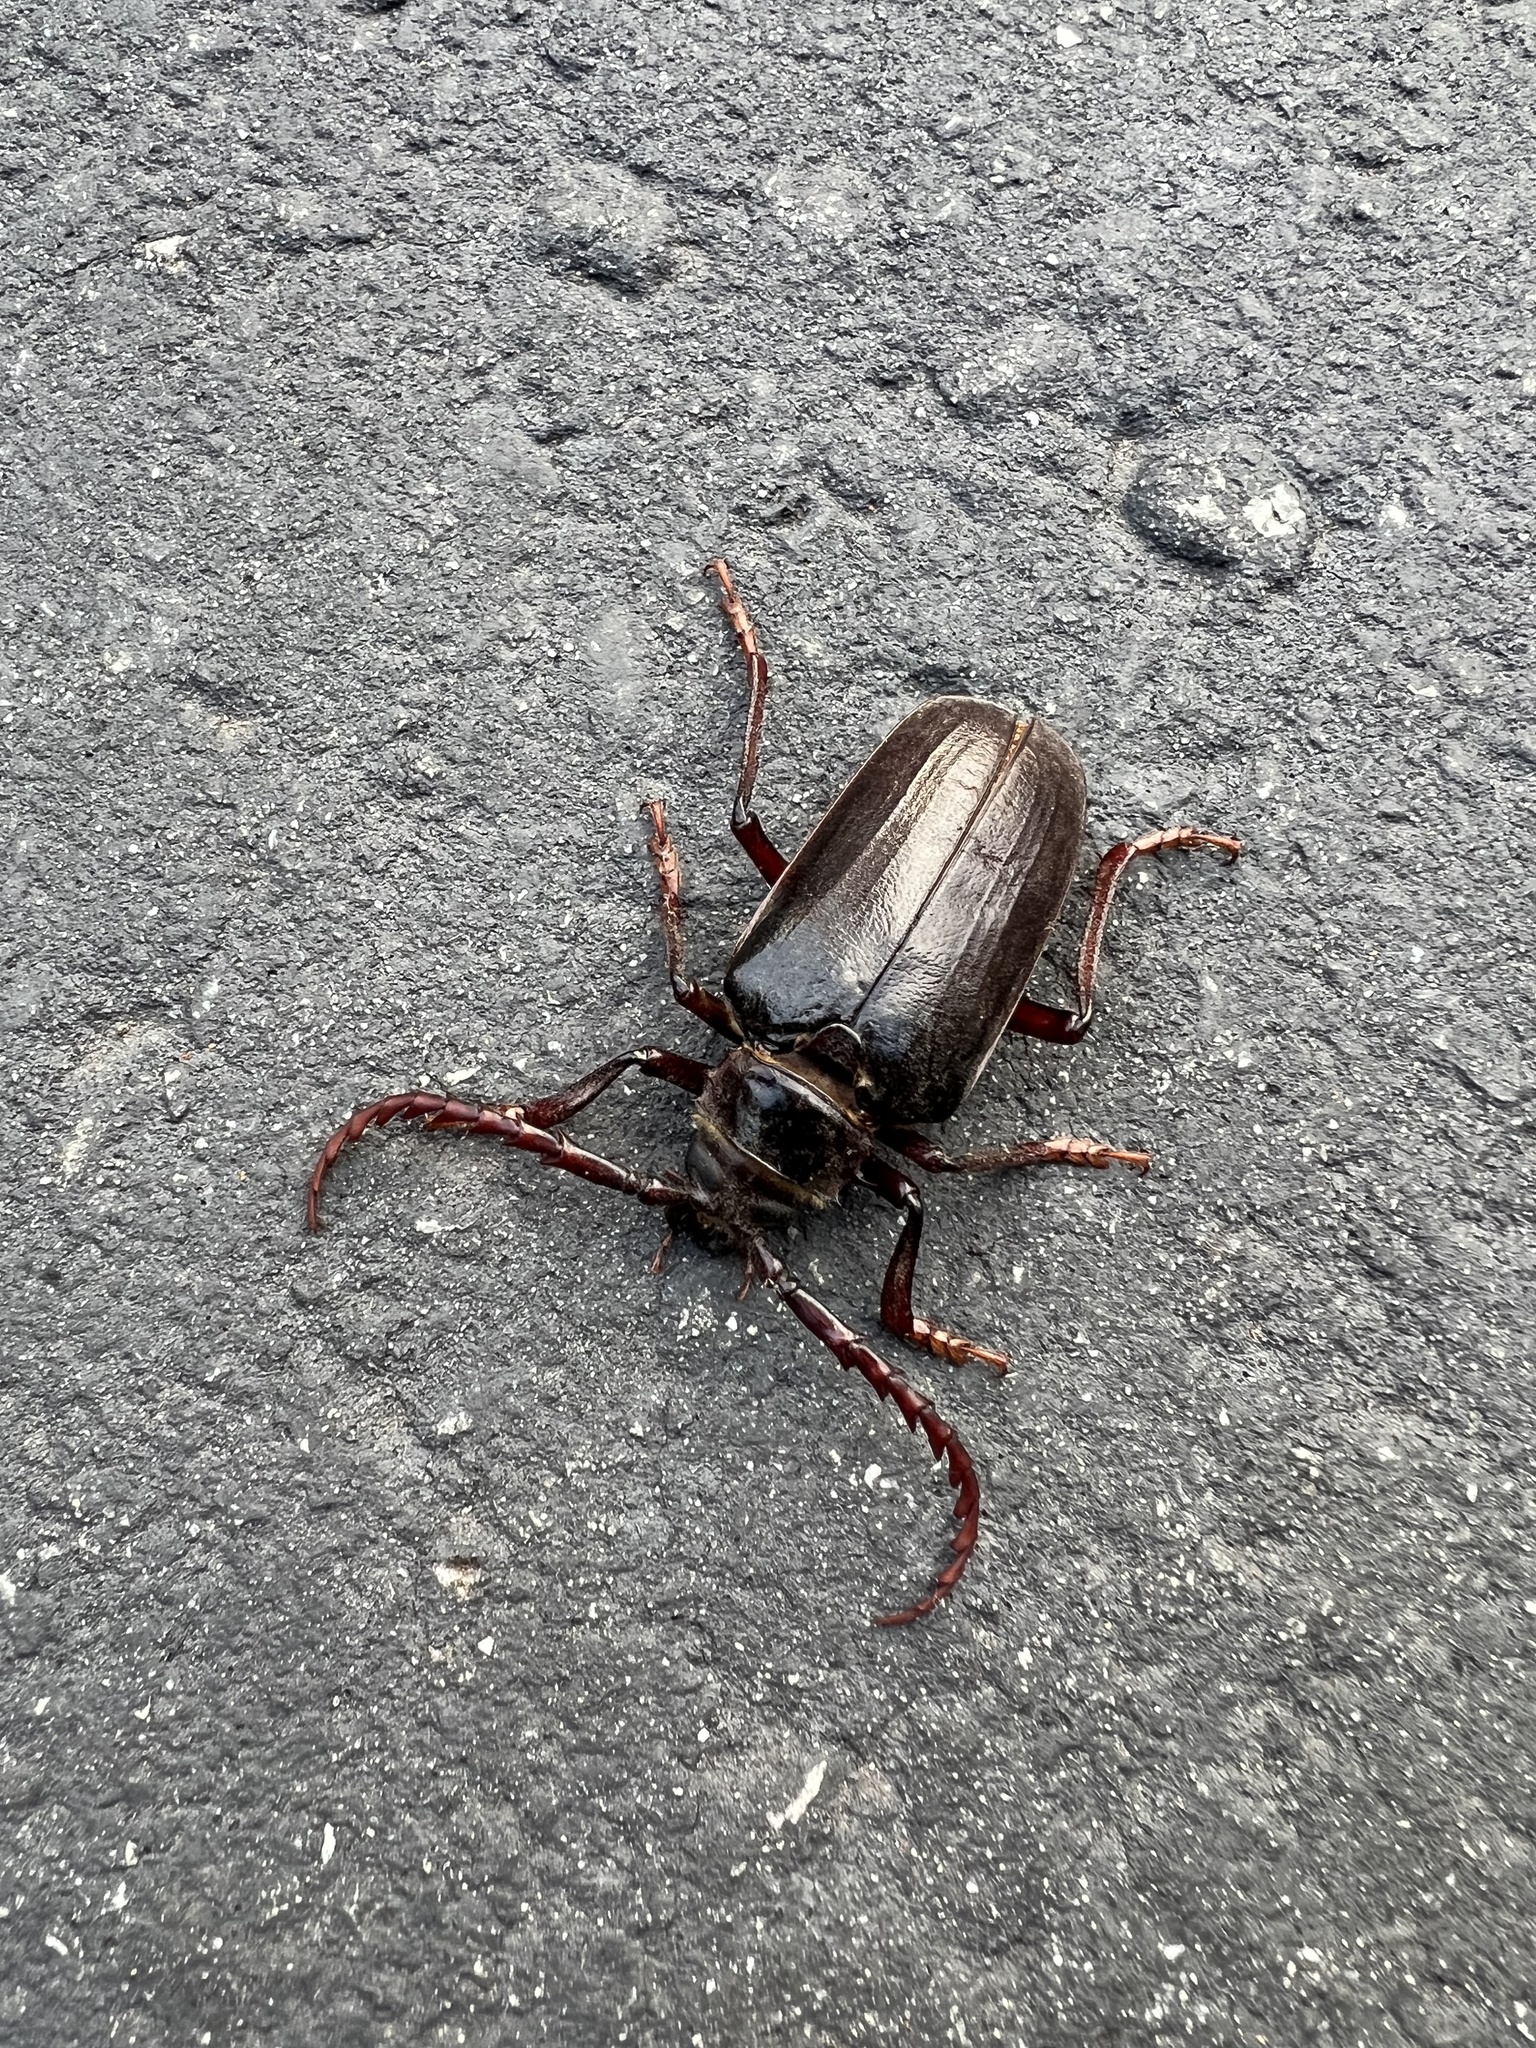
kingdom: Animalia
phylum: Arthropoda
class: Insecta
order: Coleoptera
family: Cerambycidae
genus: Prionus
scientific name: Prionus californicus
